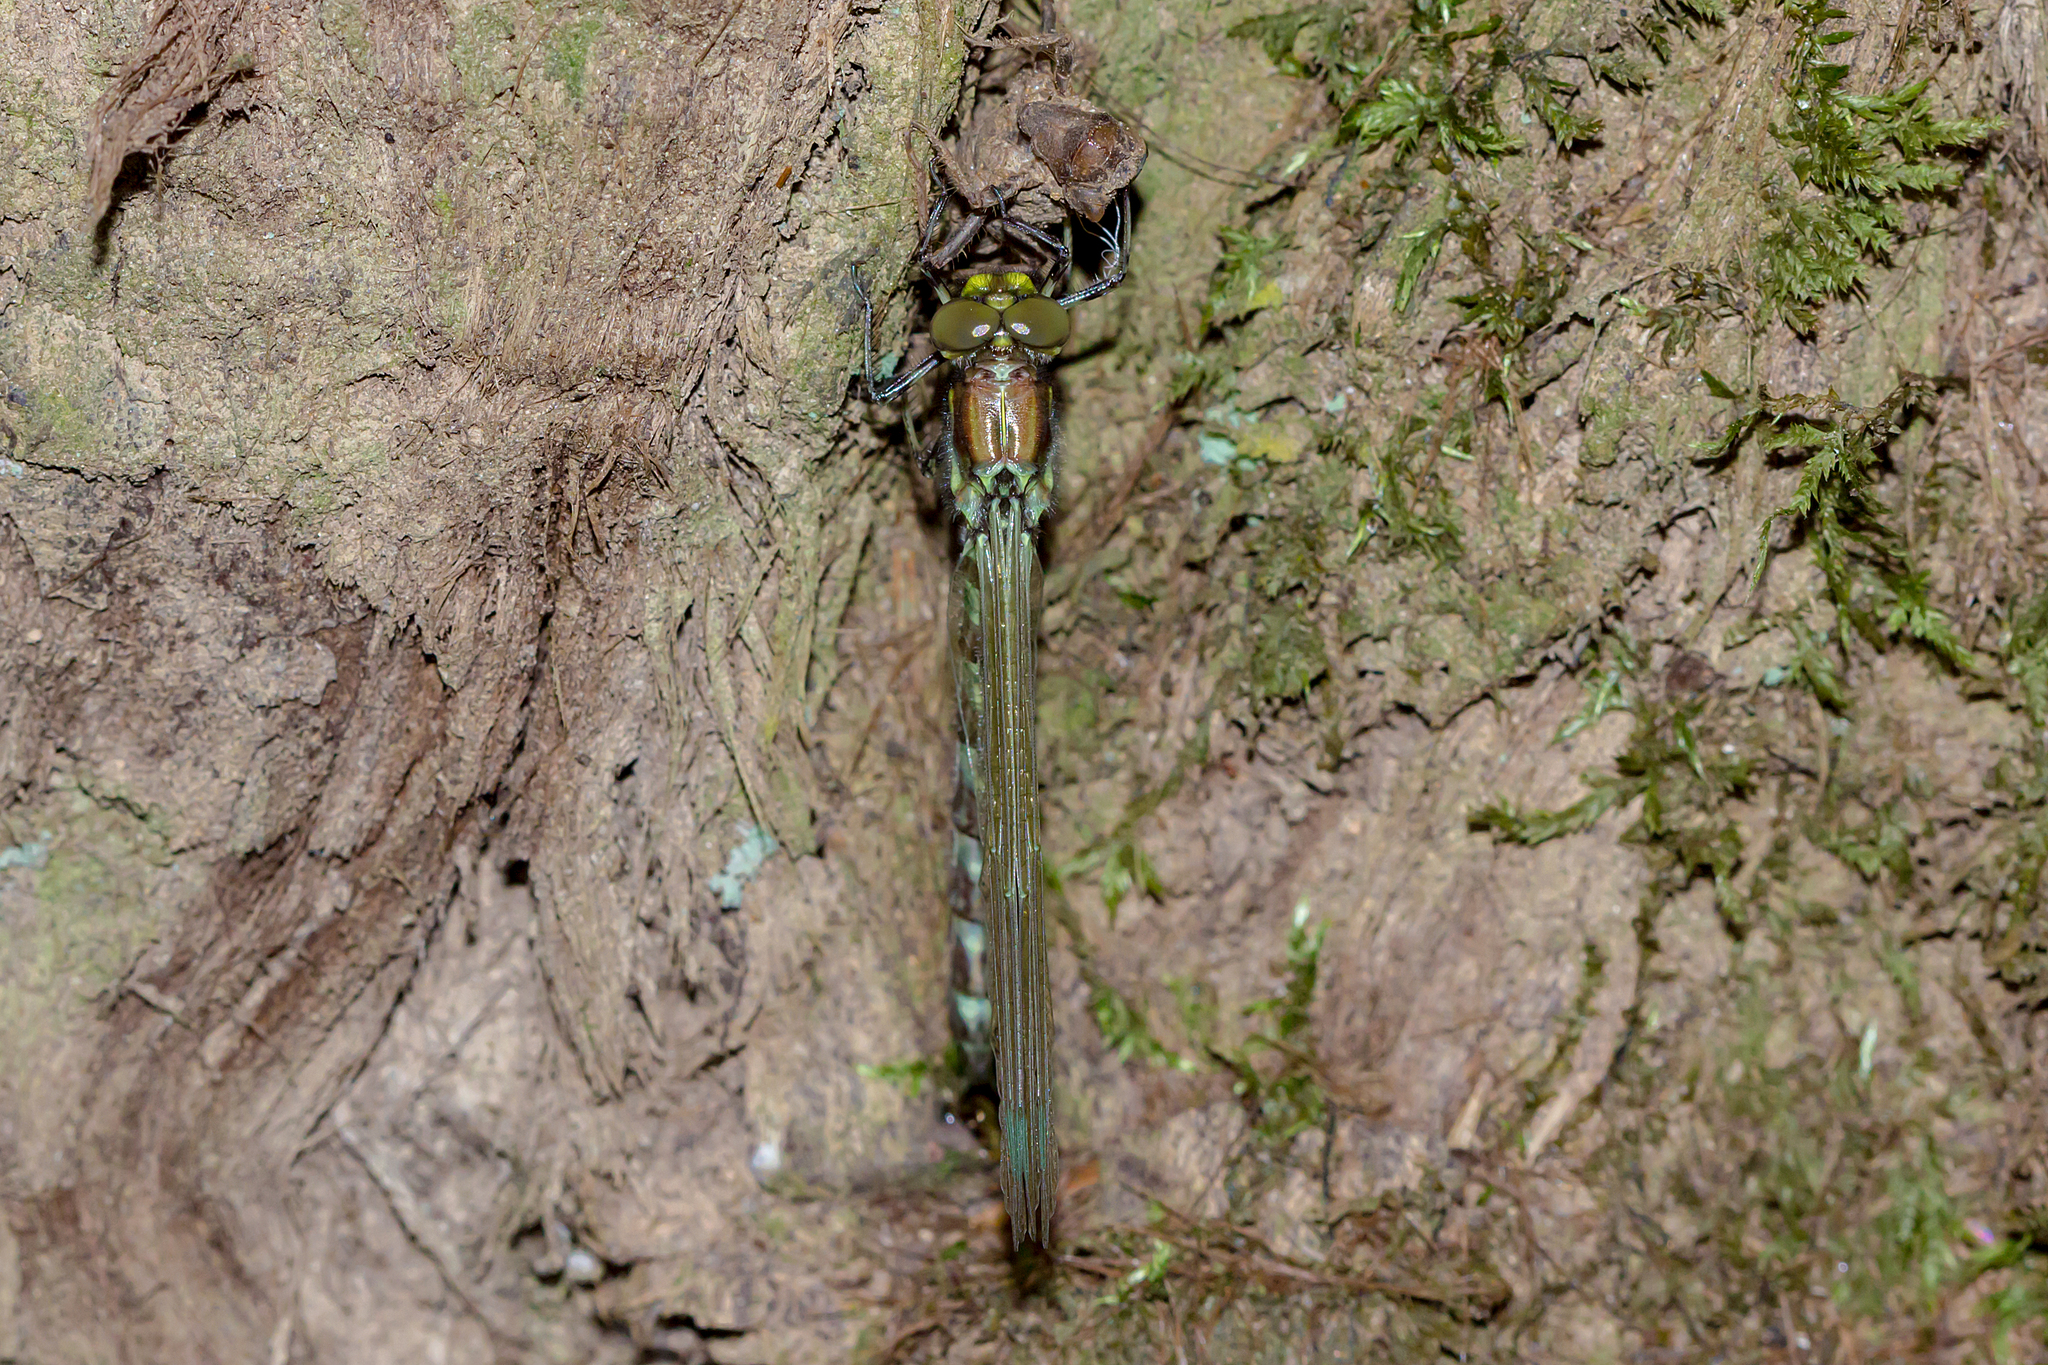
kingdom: Animalia
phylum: Arthropoda
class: Insecta
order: Odonata
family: Synthemistidae
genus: Eusynthemis
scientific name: Eusynthemis brevistyla
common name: Small tigertail
